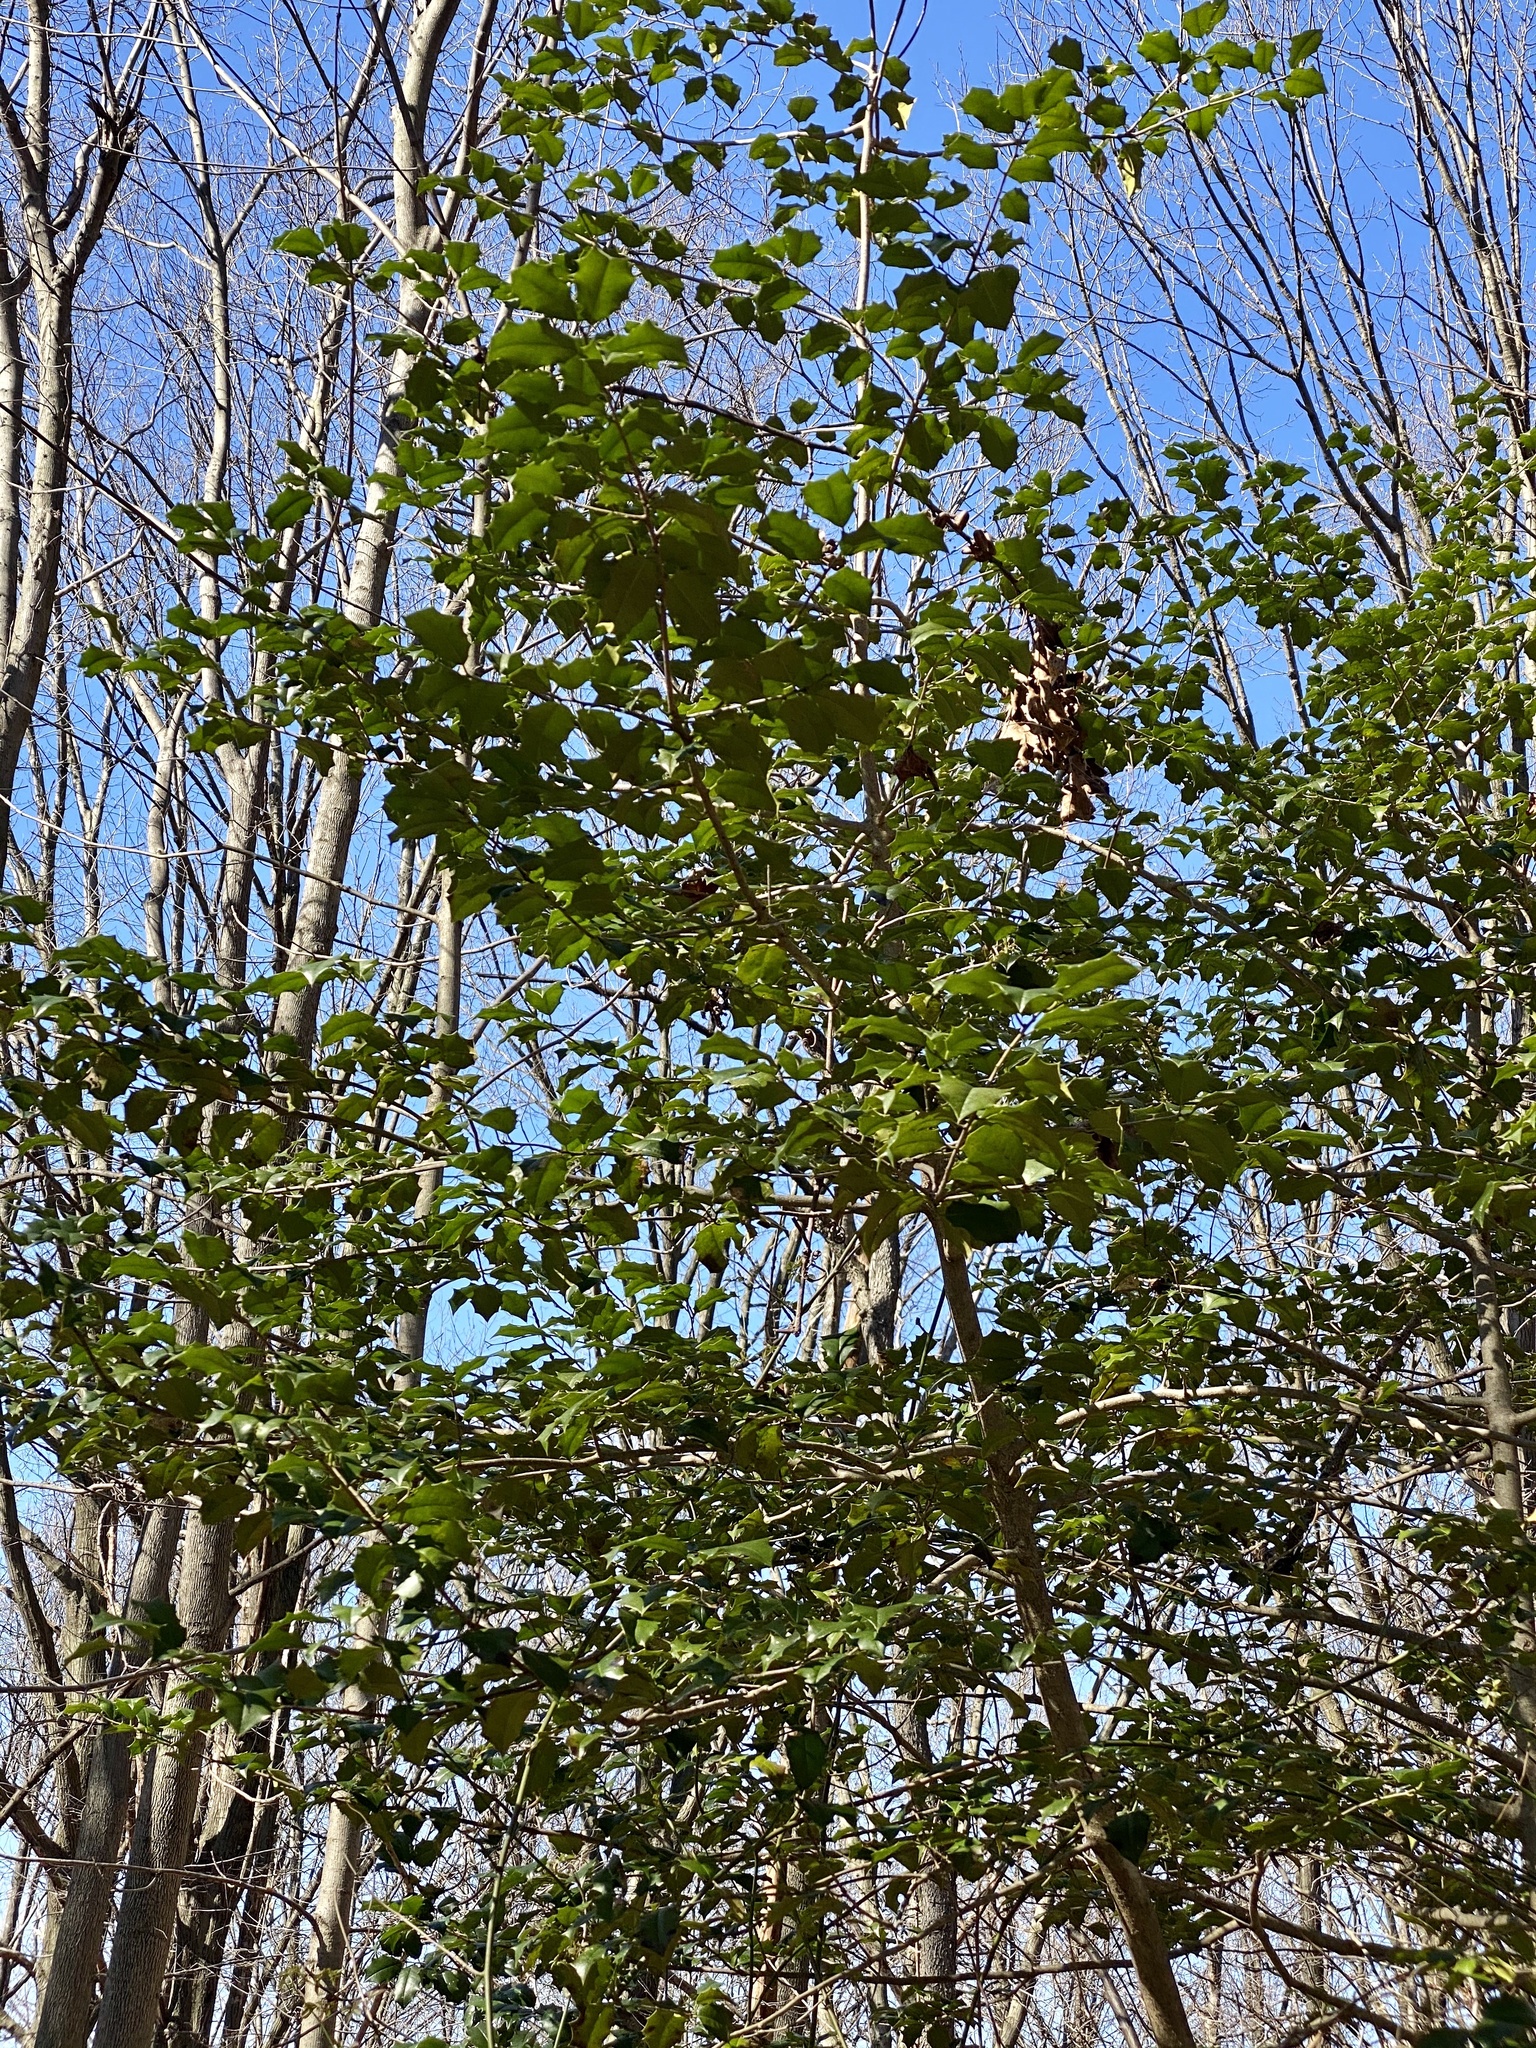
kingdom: Plantae
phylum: Tracheophyta
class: Magnoliopsida
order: Aquifoliales
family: Aquifoliaceae
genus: Ilex
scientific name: Ilex opaca
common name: American holly
